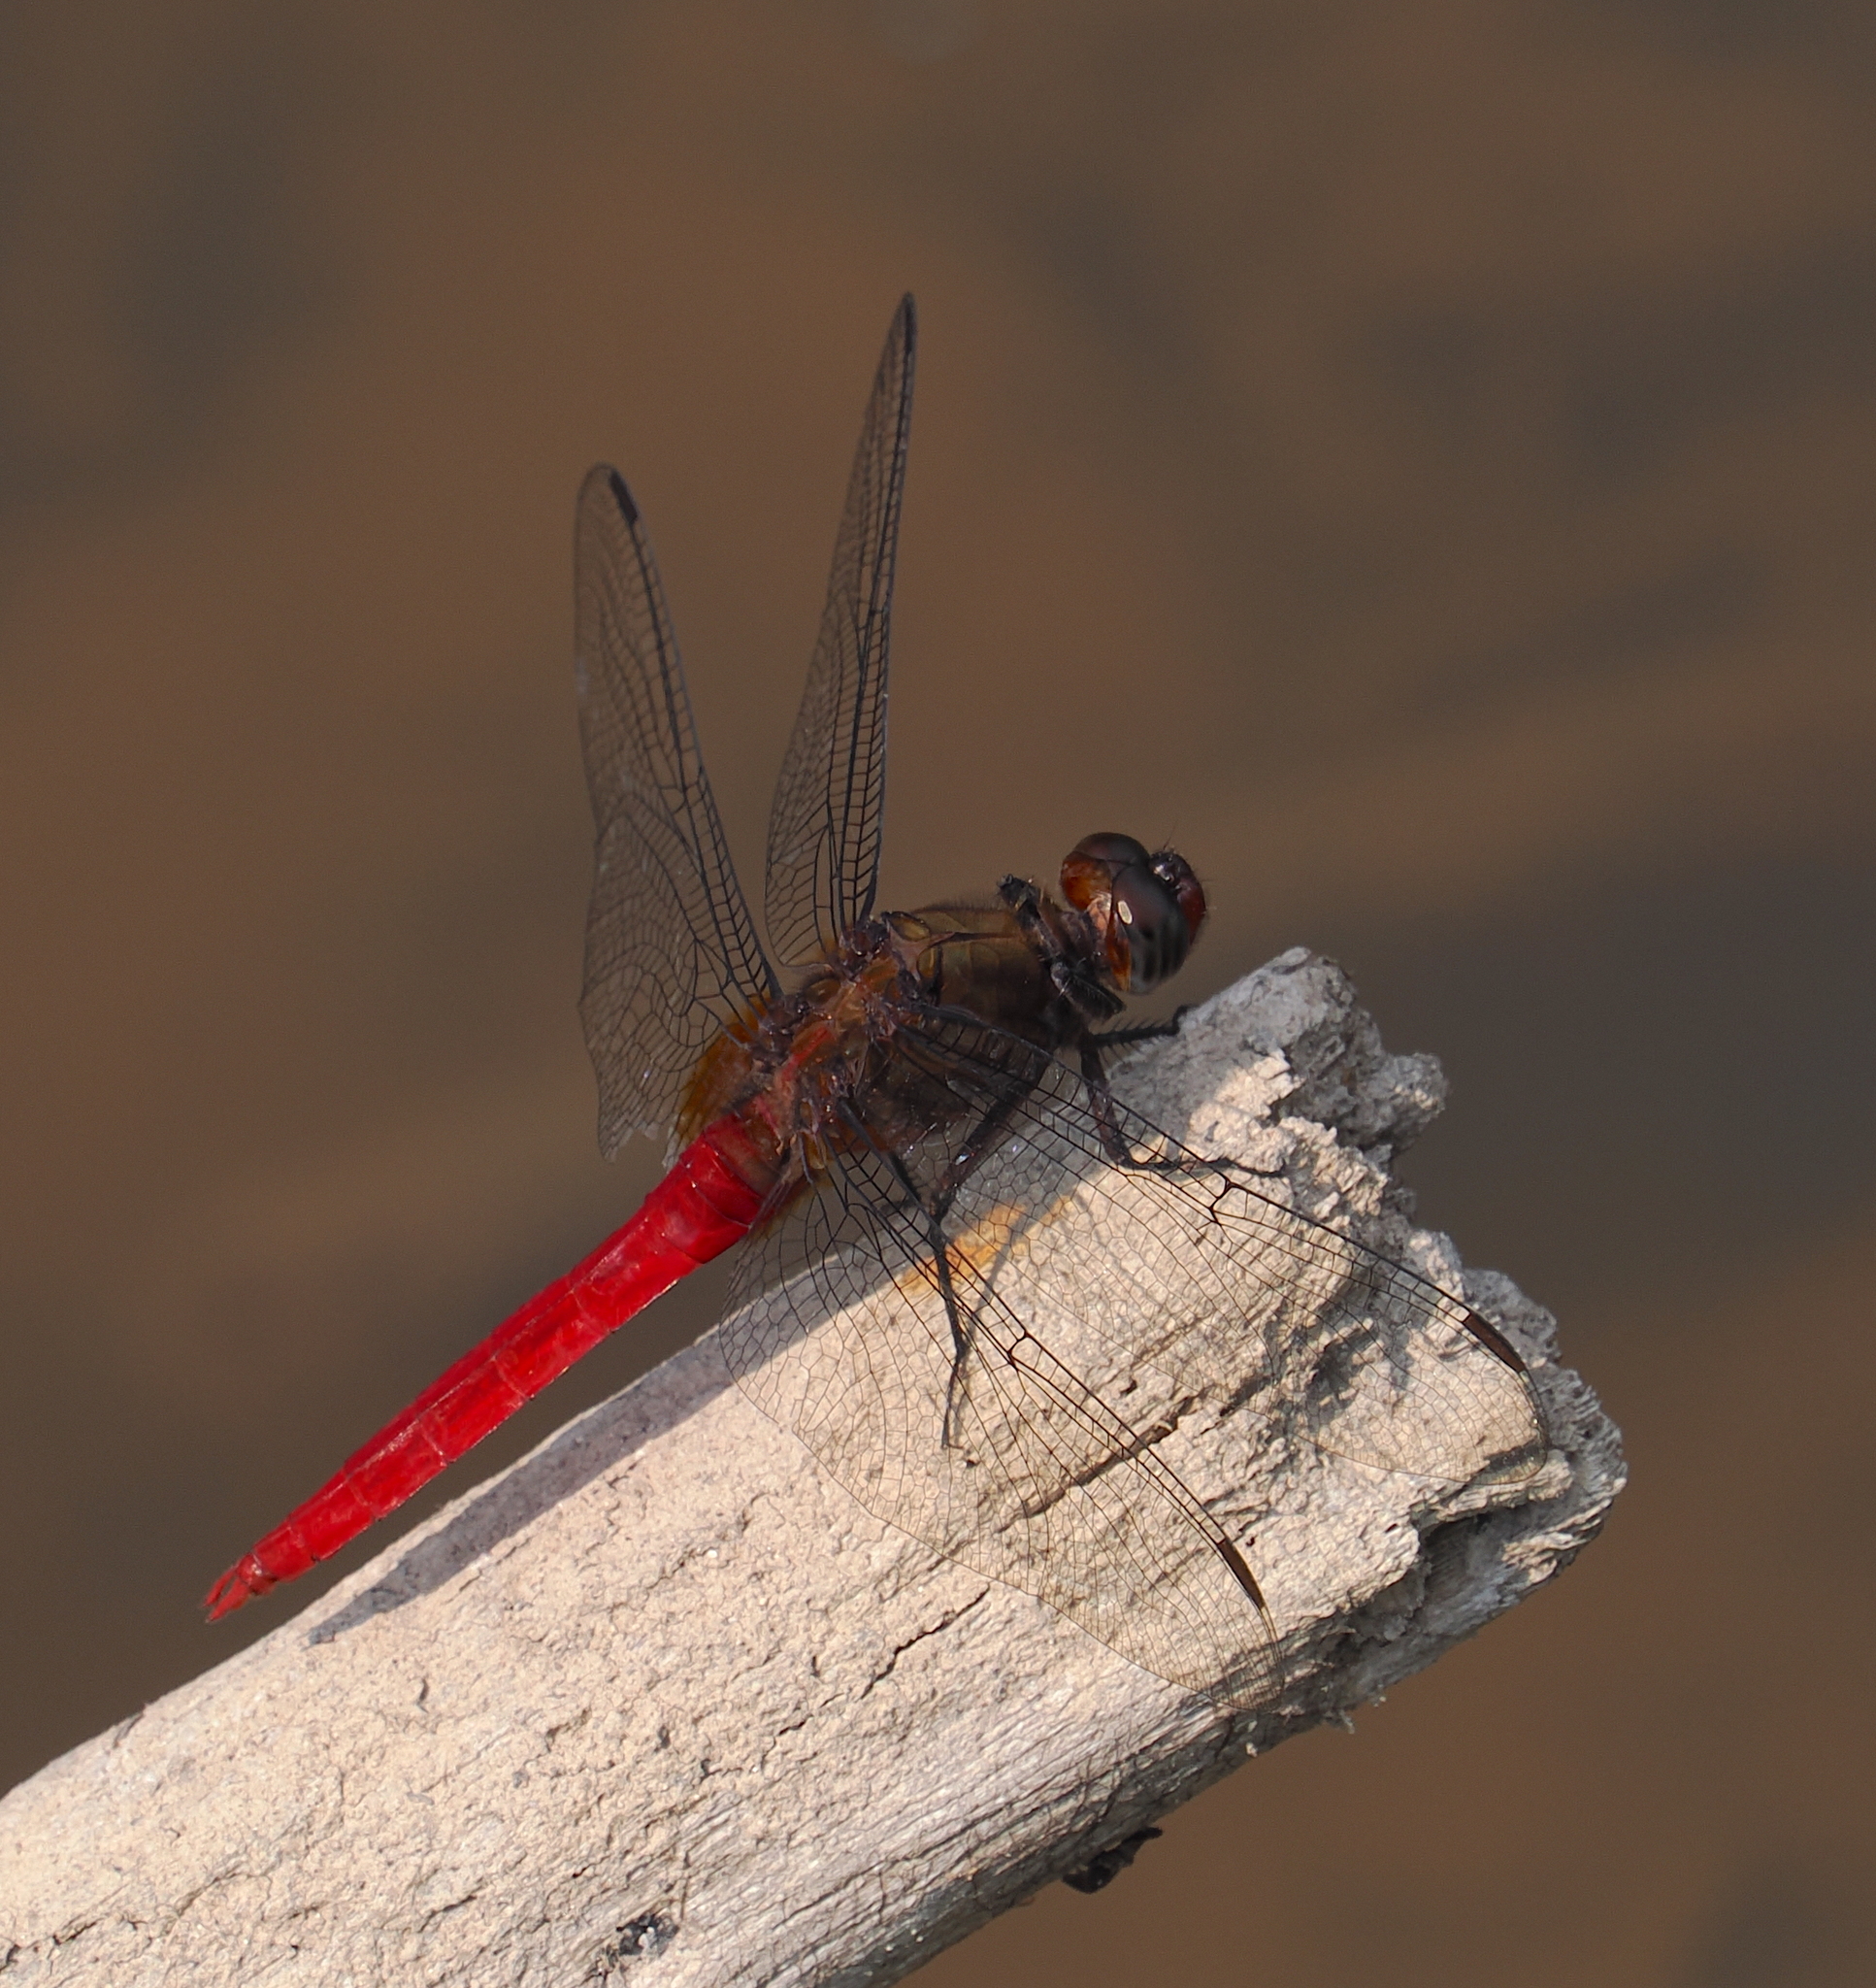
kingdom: Animalia
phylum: Arthropoda
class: Insecta
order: Odonata
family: Libellulidae
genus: Orthetrum
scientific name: Orthetrum chrysis
